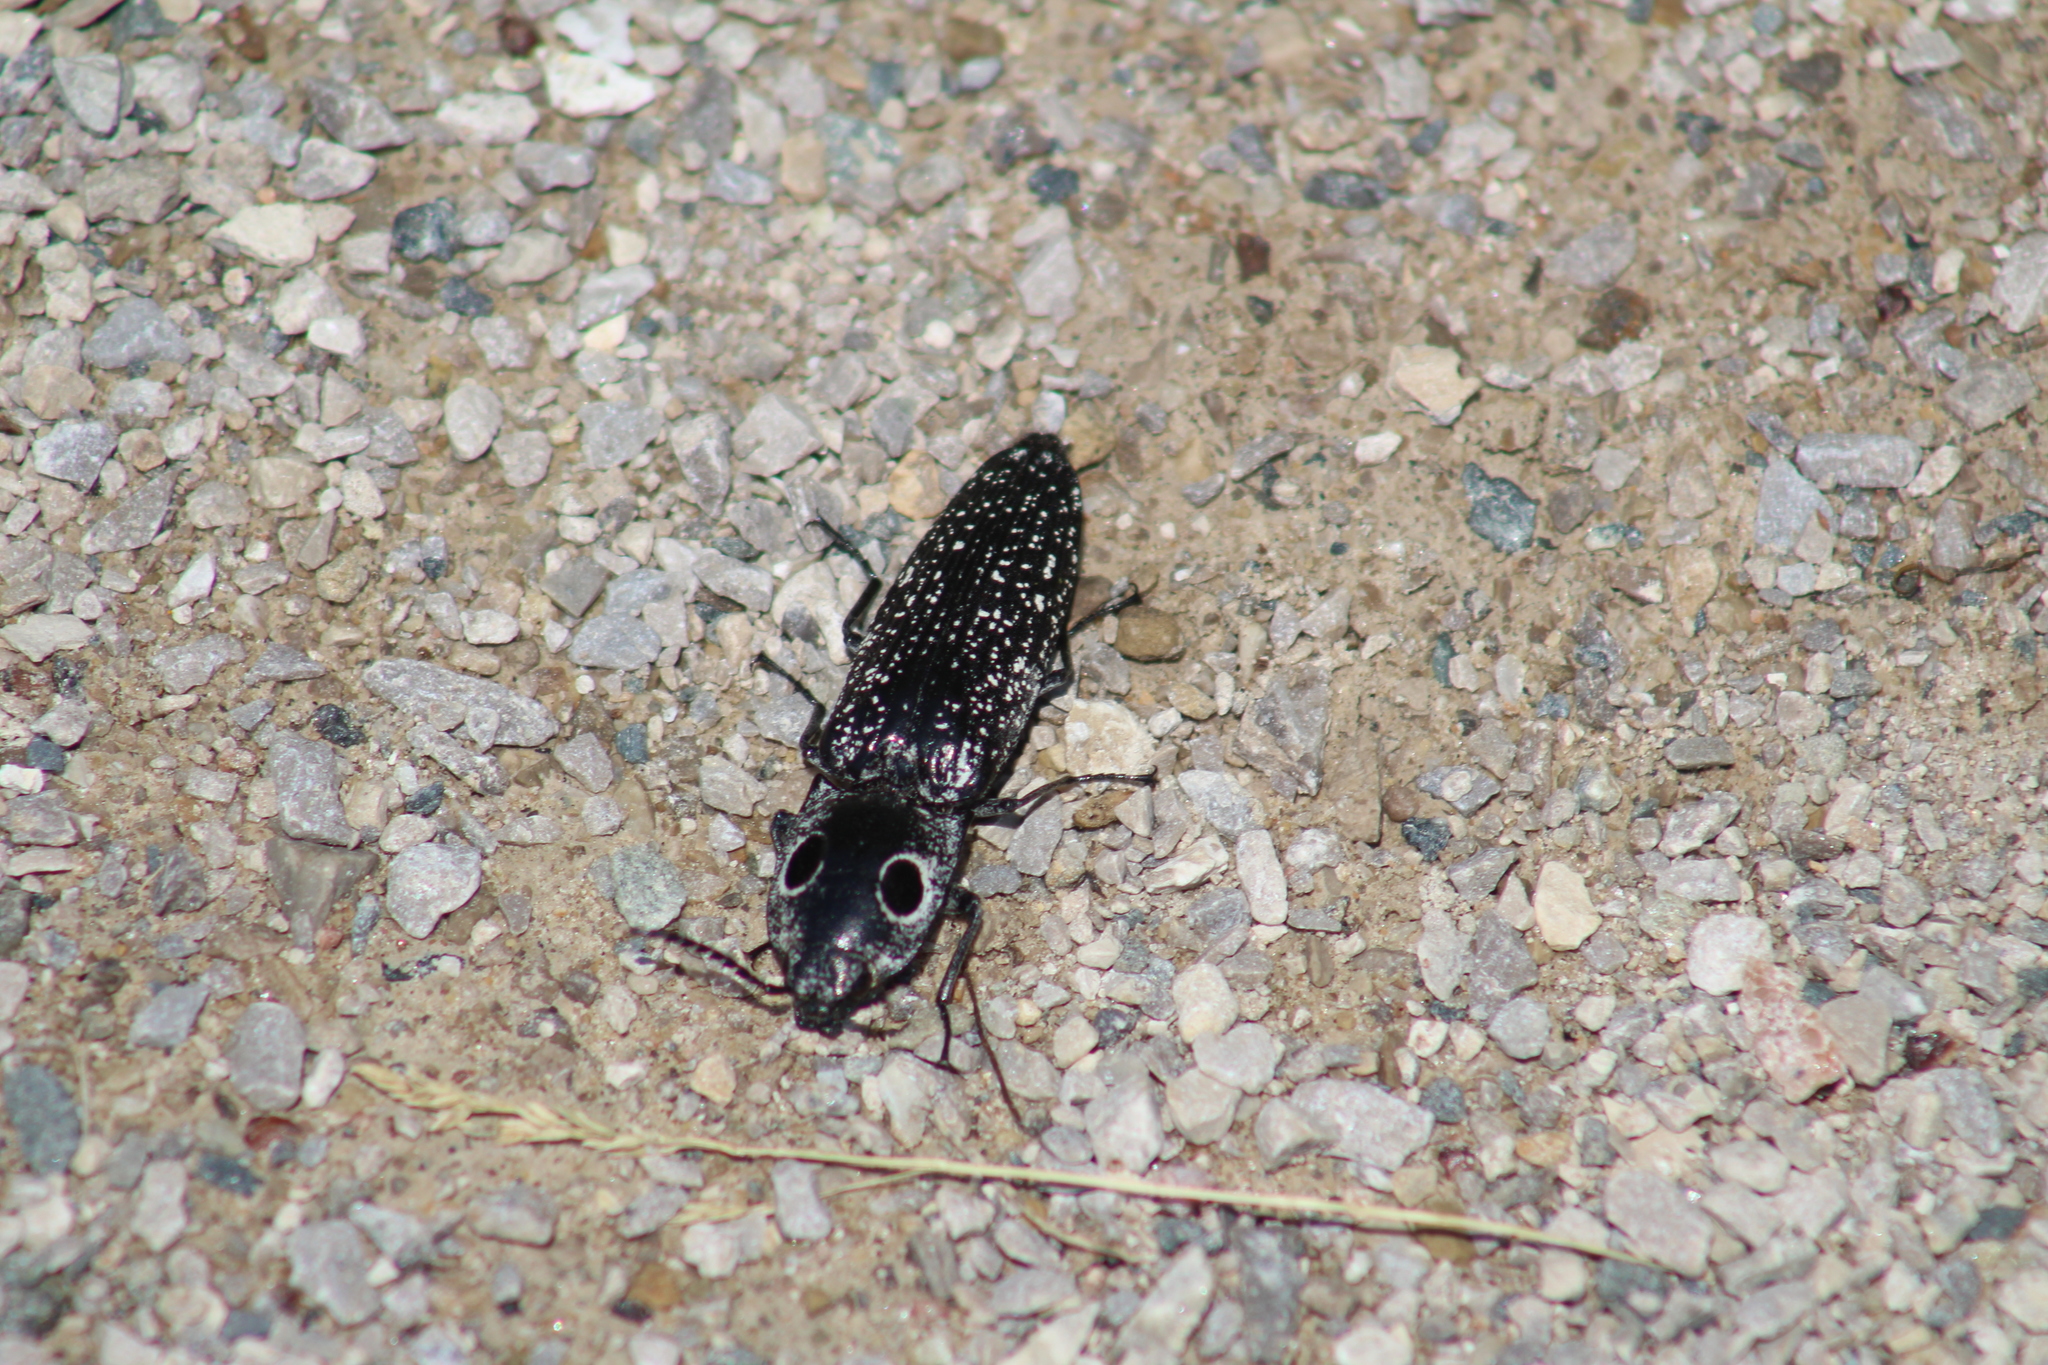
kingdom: Animalia
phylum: Arthropoda
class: Insecta
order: Coleoptera
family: Elateridae
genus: Alaus
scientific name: Alaus oculatus
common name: Eastern eyed click beetle
